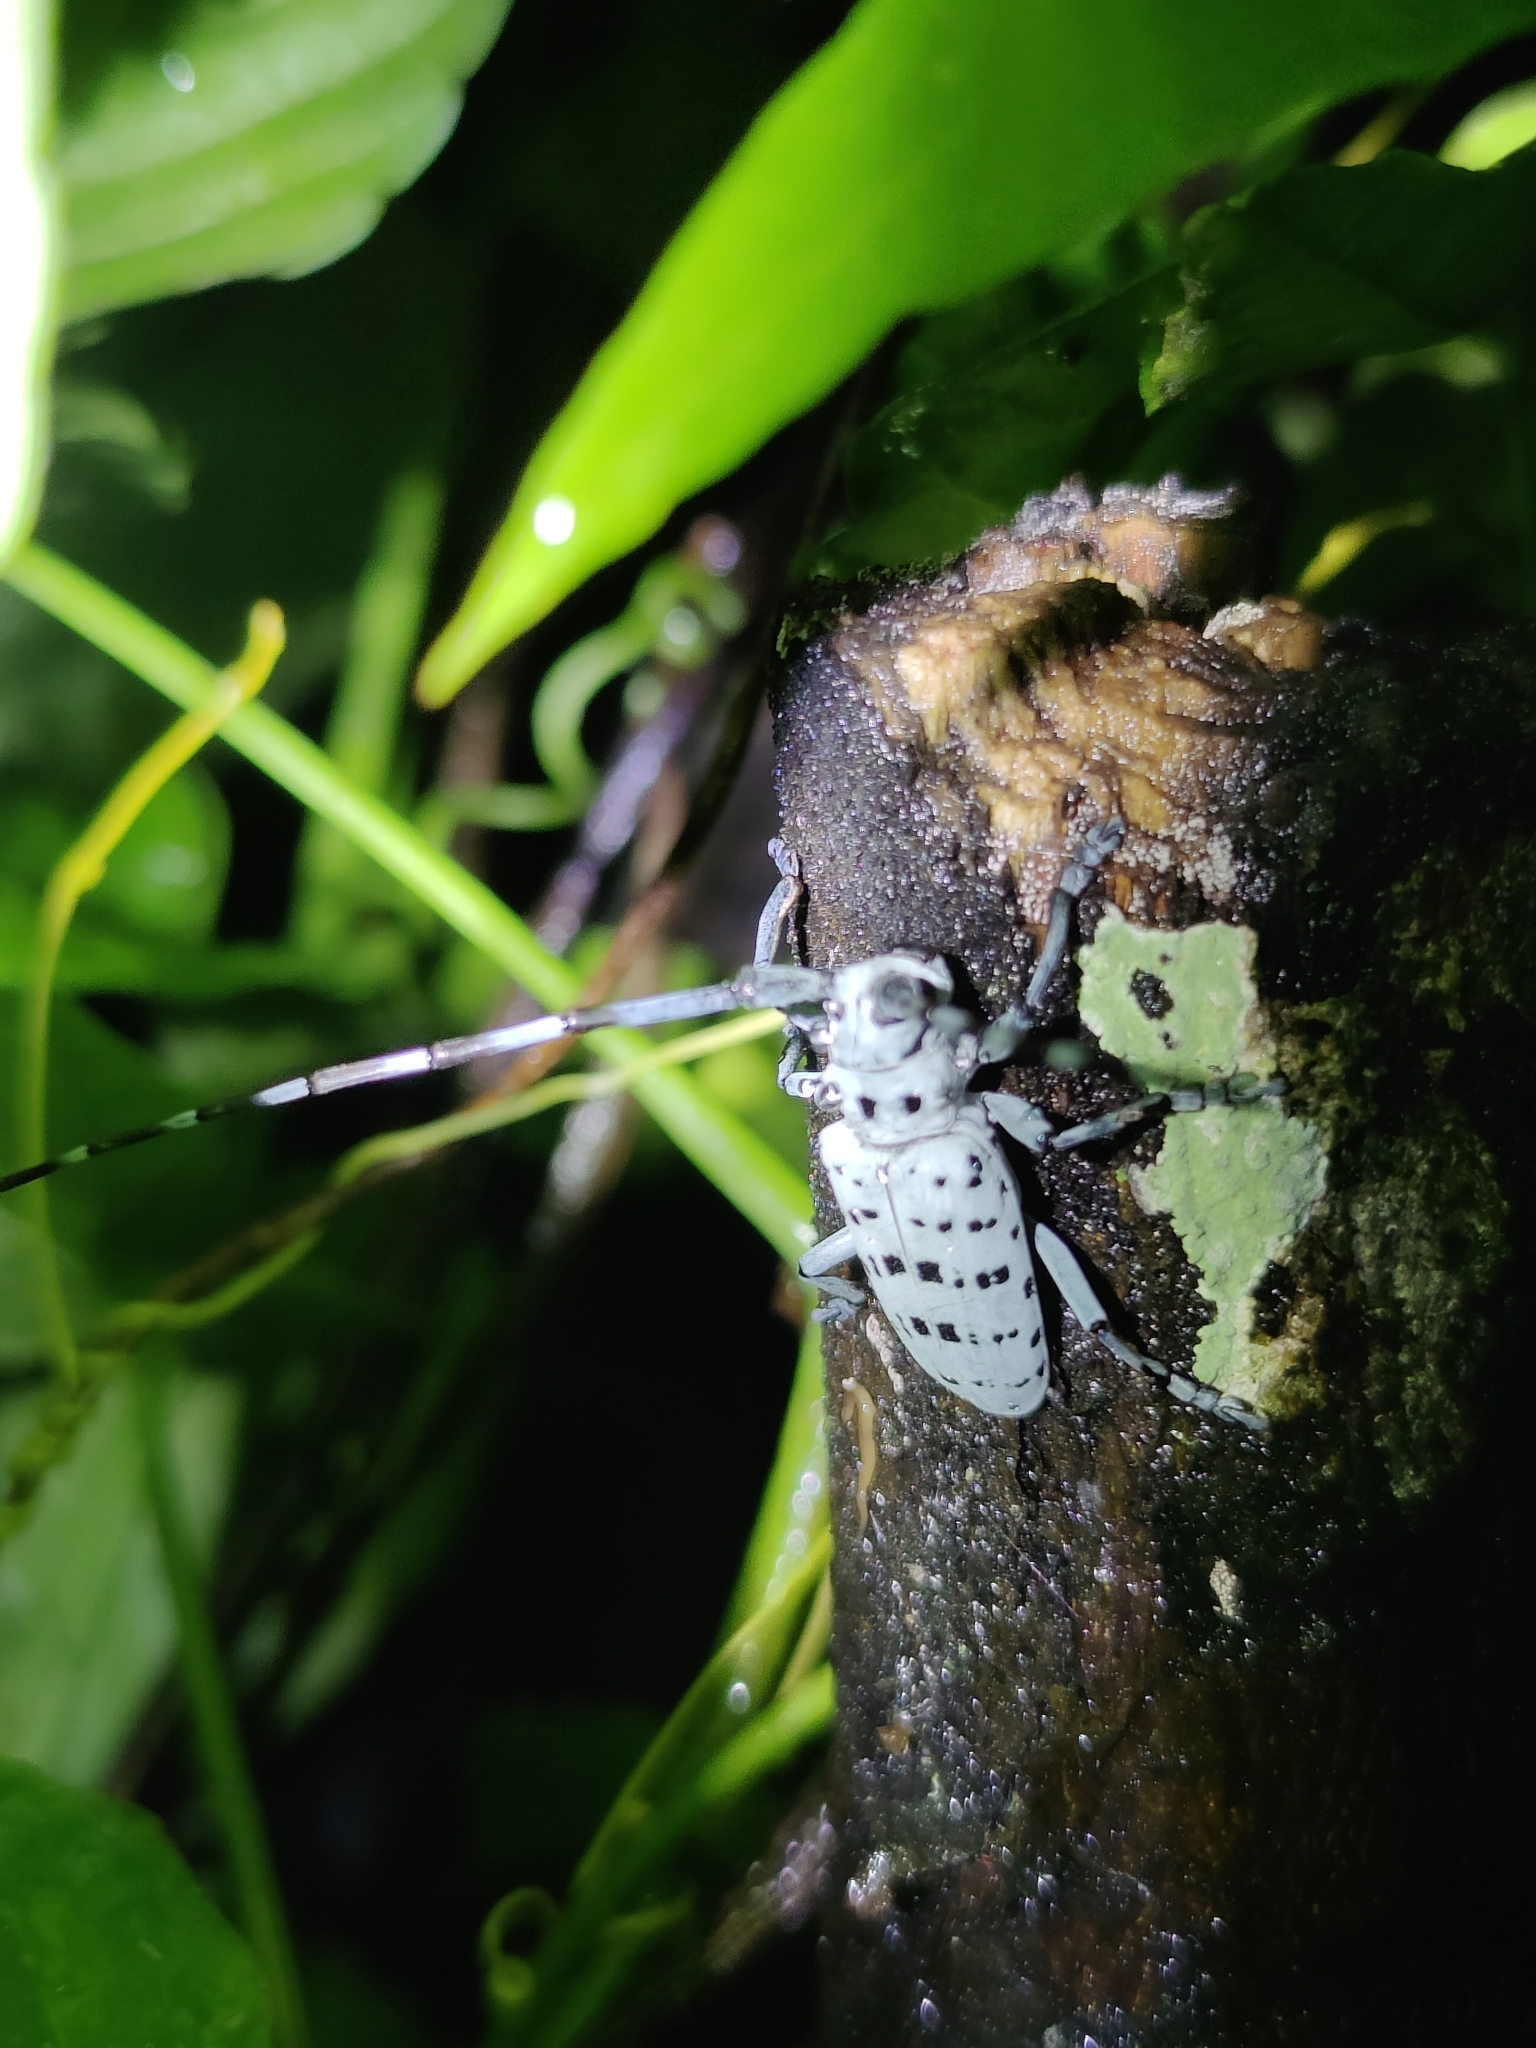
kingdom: Animalia
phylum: Arthropoda
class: Insecta
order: Coleoptera
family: Cerambycidae
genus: Pseudonemophas
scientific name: Pseudonemophas versteegii
